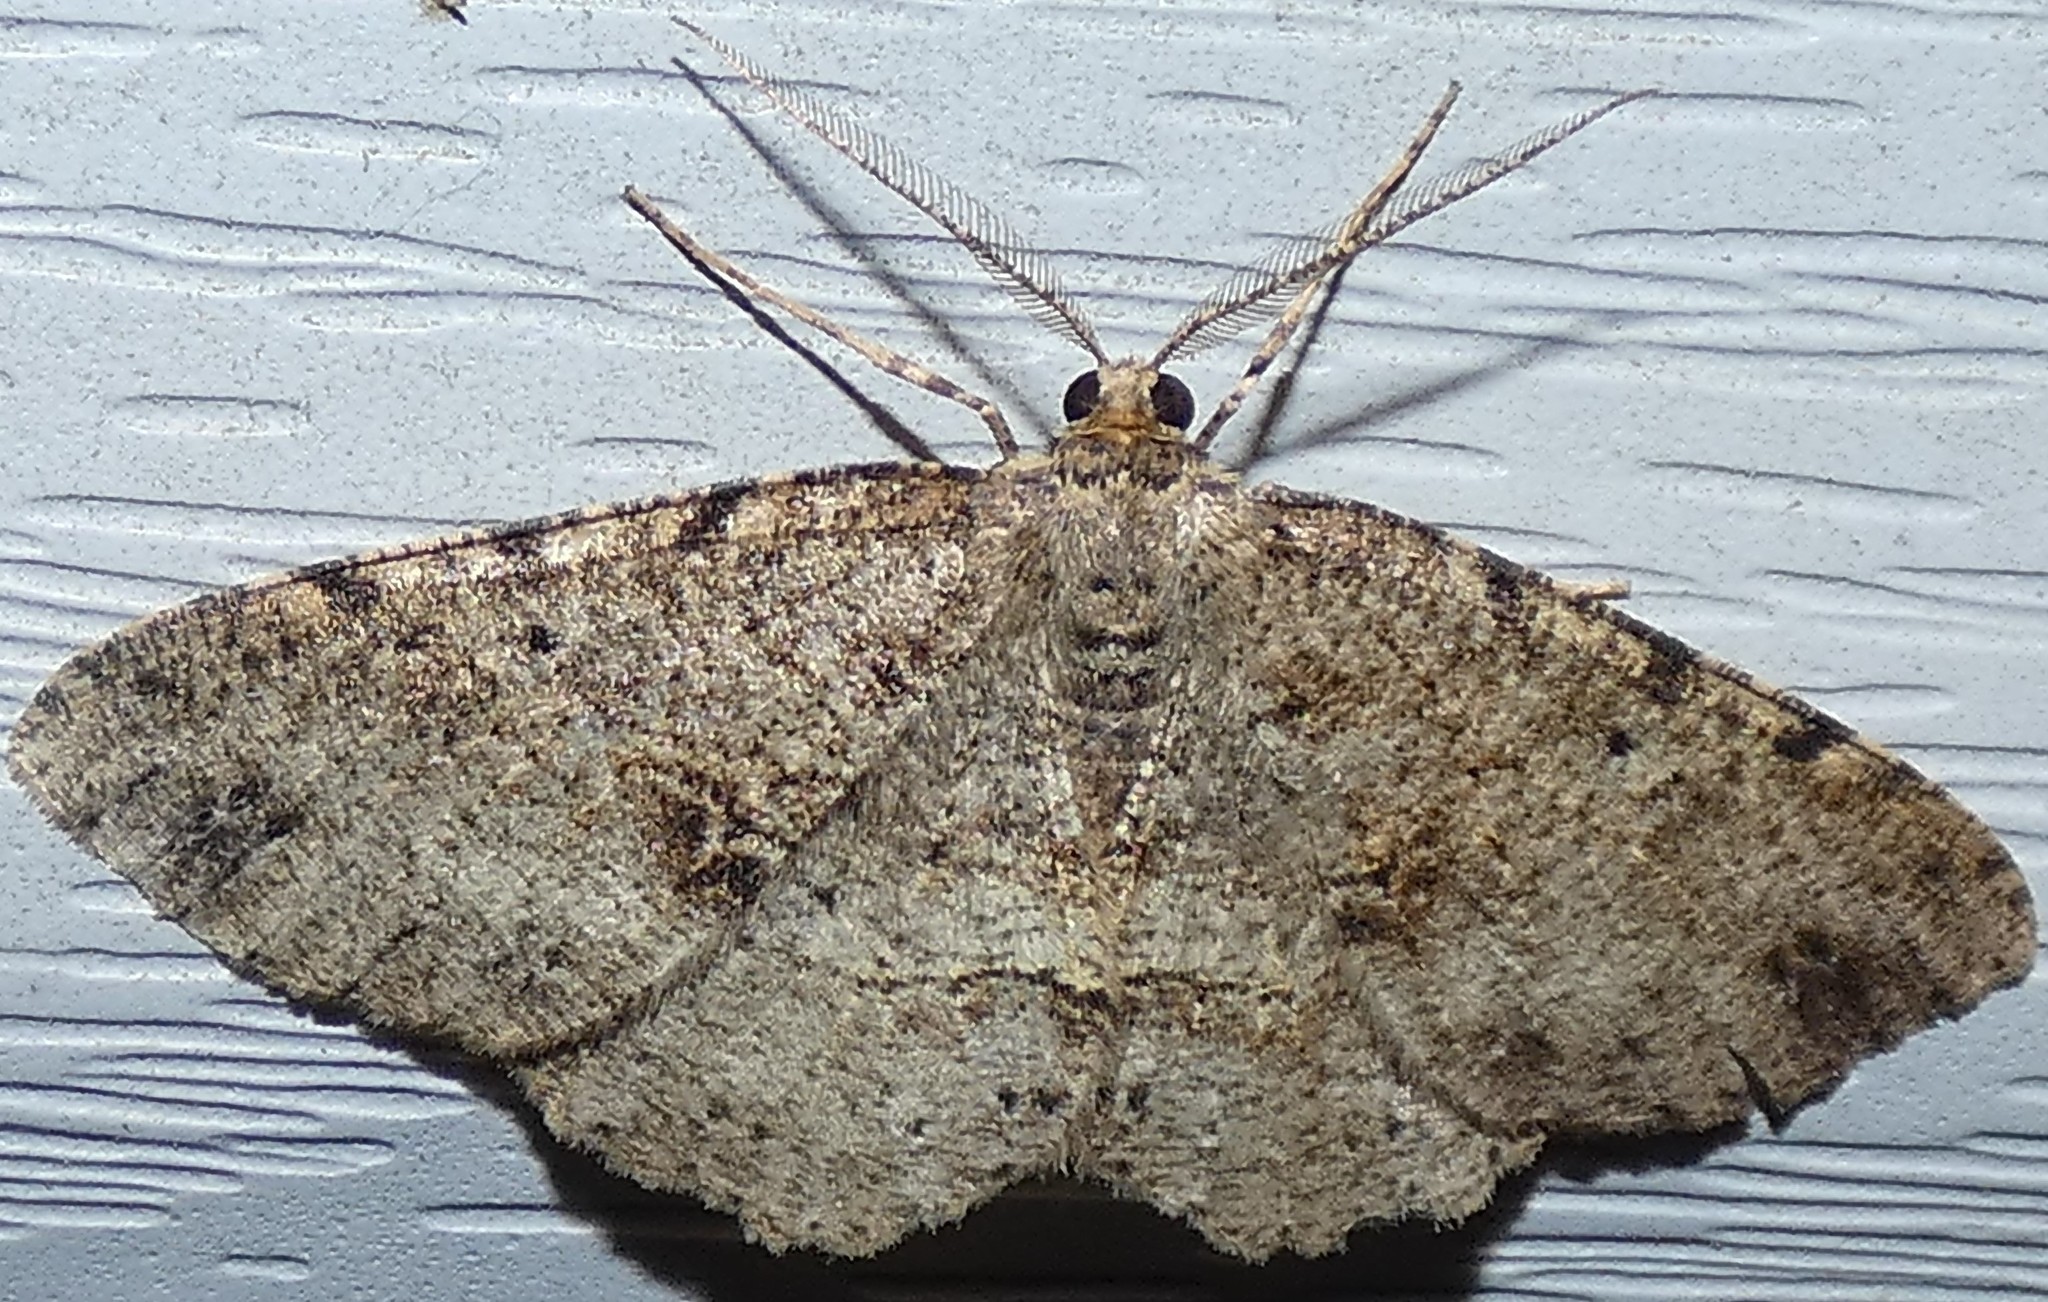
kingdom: Animalia
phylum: Arthropoda
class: Insecta
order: Lepidoptera
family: Geometridae
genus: Melanolophia
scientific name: Melanolophia canadaria
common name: Canadian melanolophia
